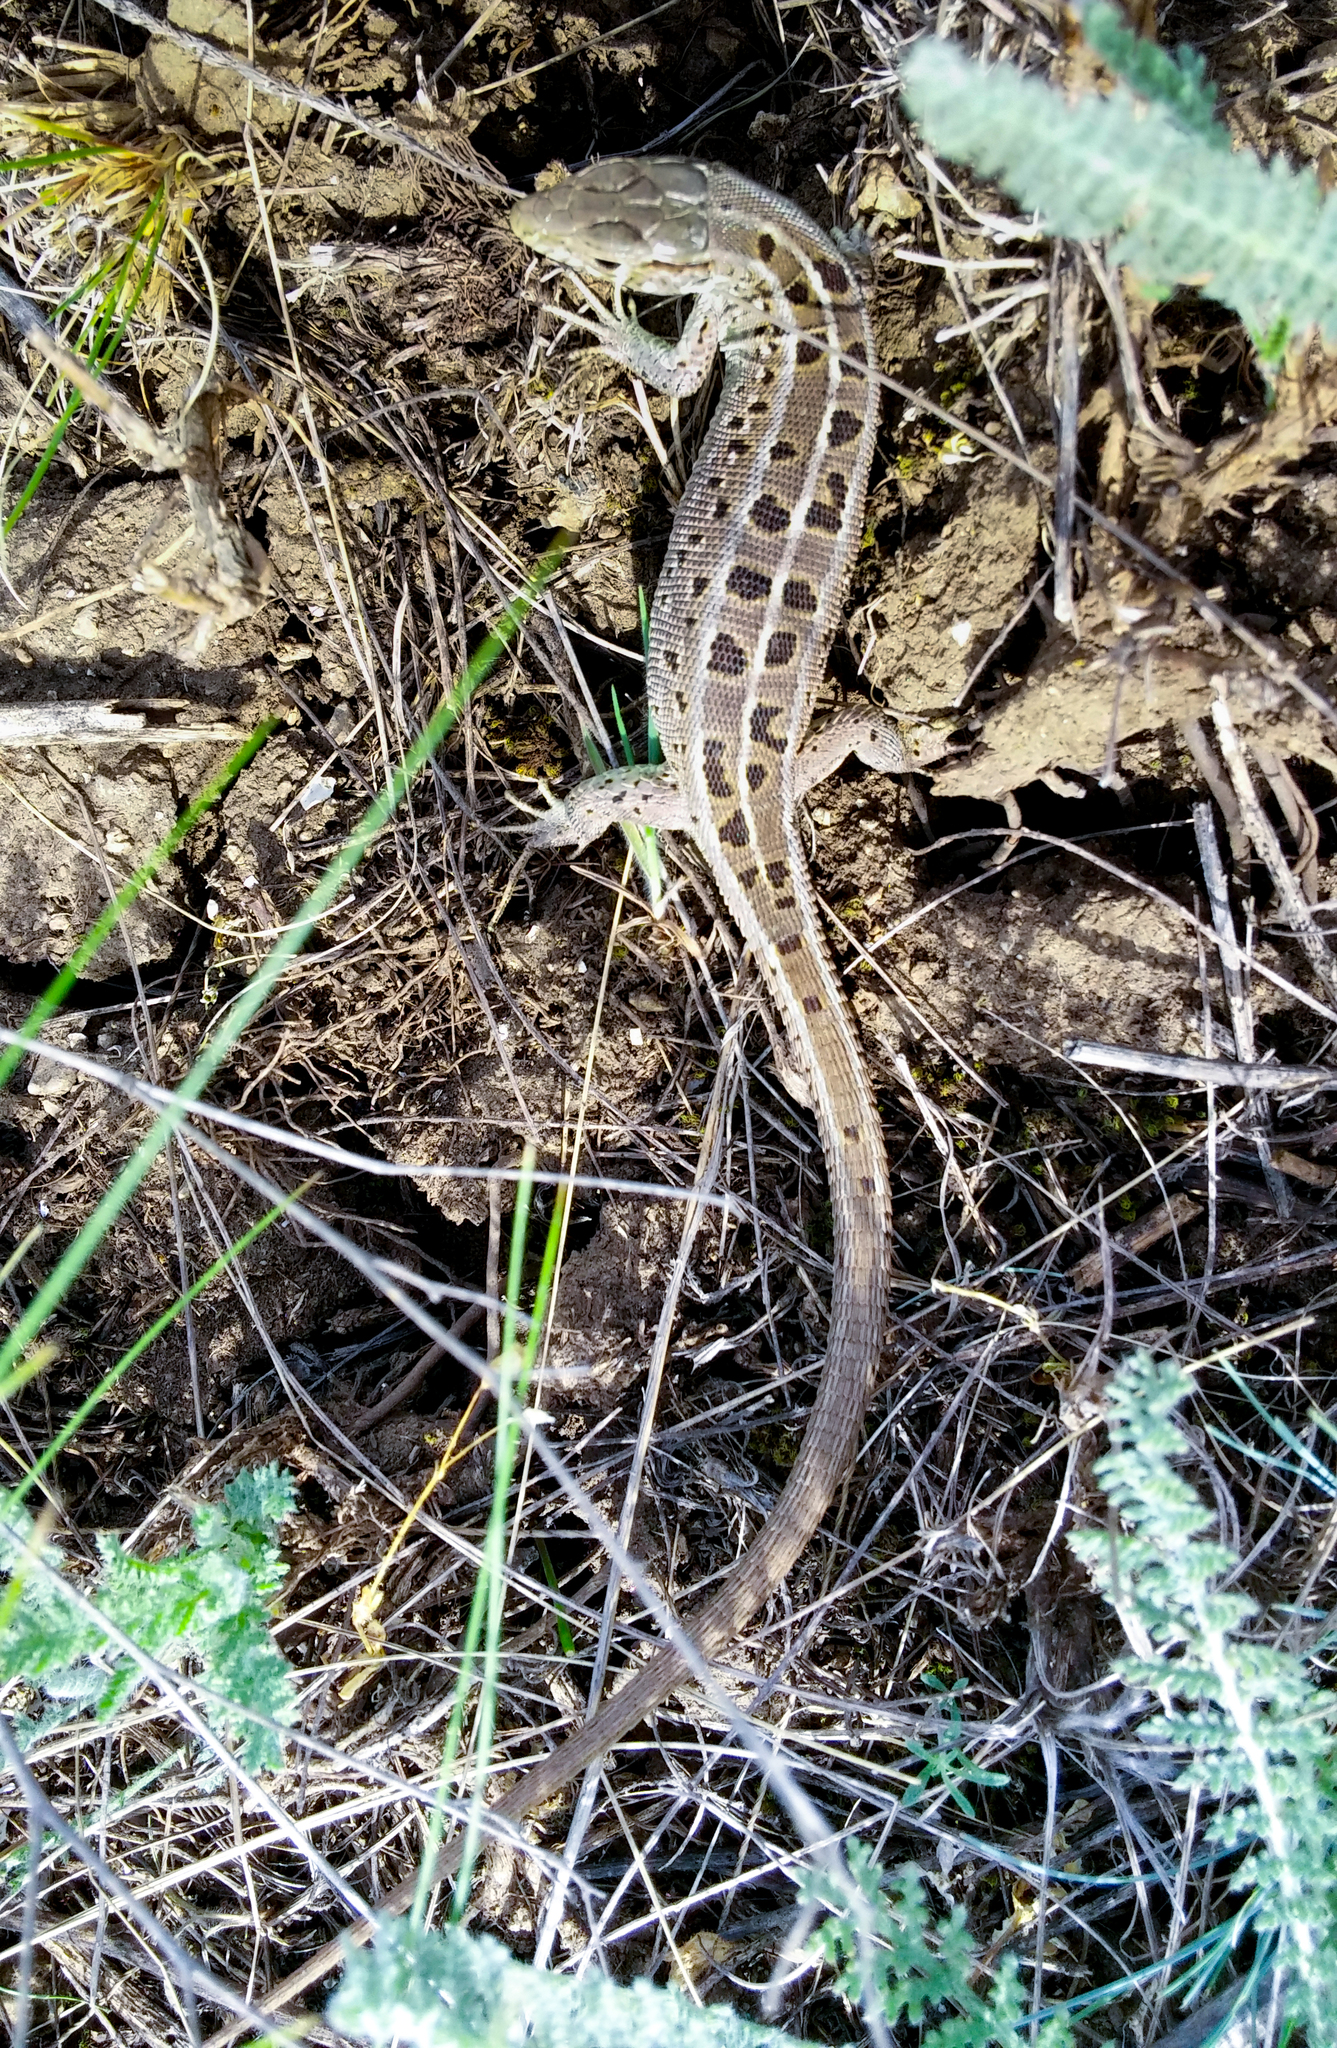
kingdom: Animalia
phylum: Chordata
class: Squamata
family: Lacertidae
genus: Lacerta
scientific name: Lacerta agilis
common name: Sand lizard
